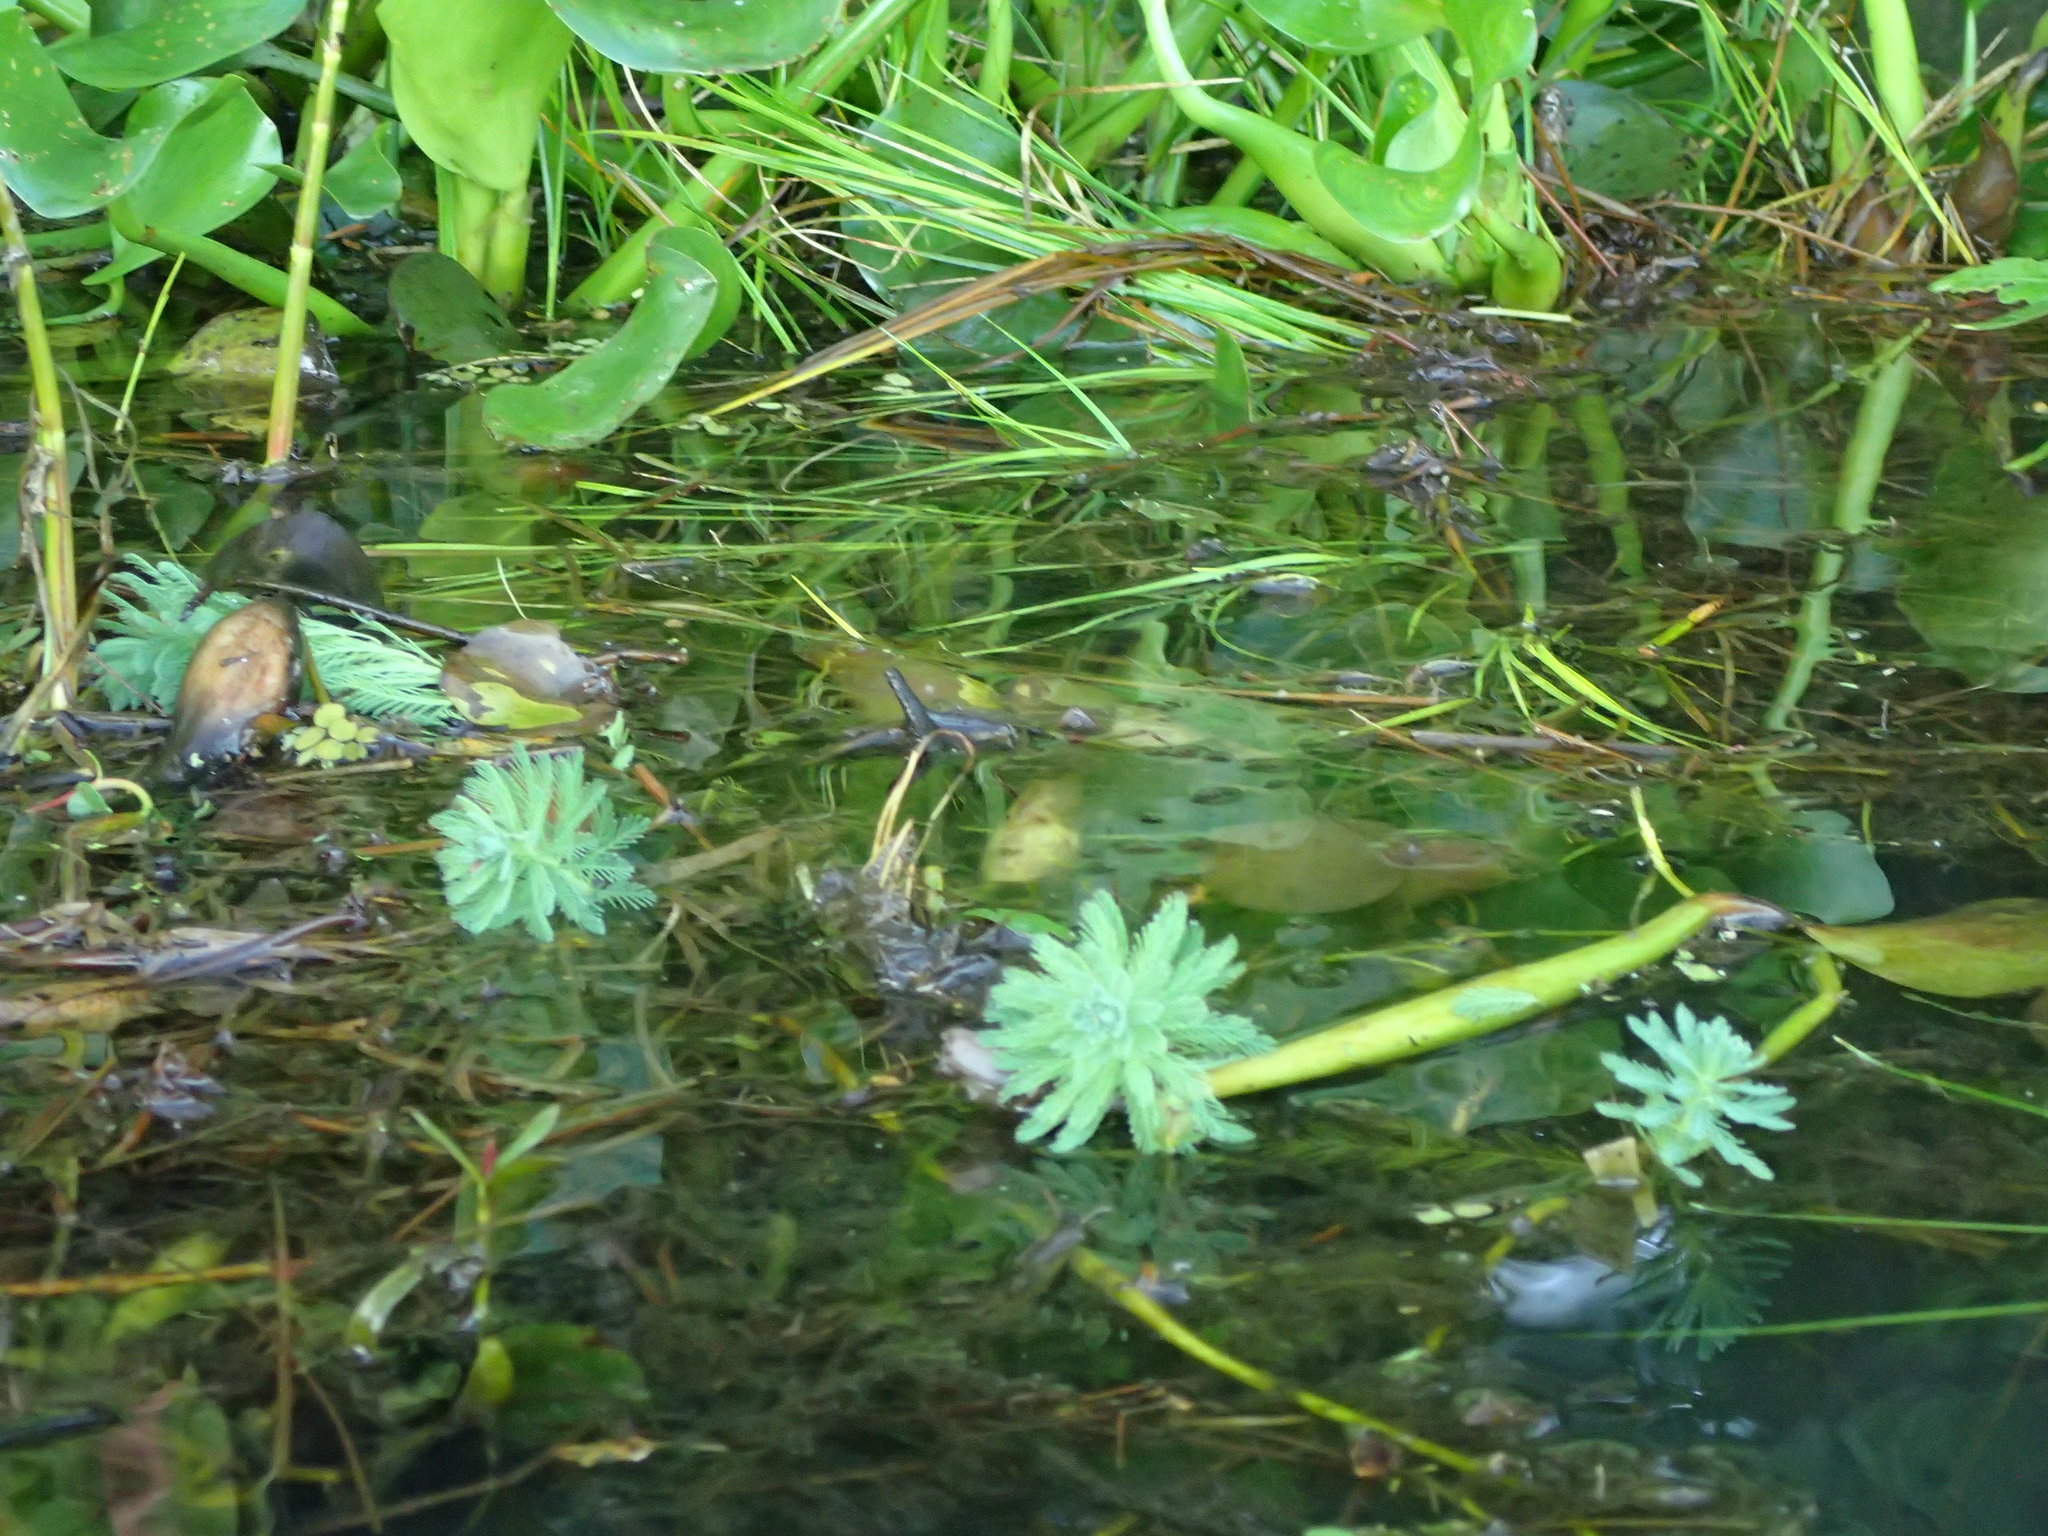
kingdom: Plantae
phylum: Tracheophyta
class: Magnoliopsida
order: Saxifragales
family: Haloragaceae
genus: Myriophyllum
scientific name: Myriophyllum aquaticum
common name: Parrot's feather
